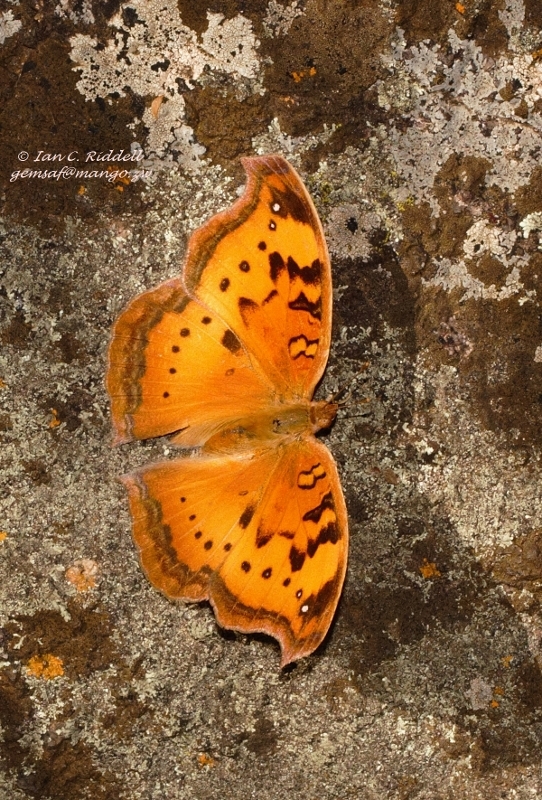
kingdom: Animalia
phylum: Arthropoda
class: Insecta
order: Lepidoptera
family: Nymphalidae
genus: Junonia
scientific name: Junonia cuama
